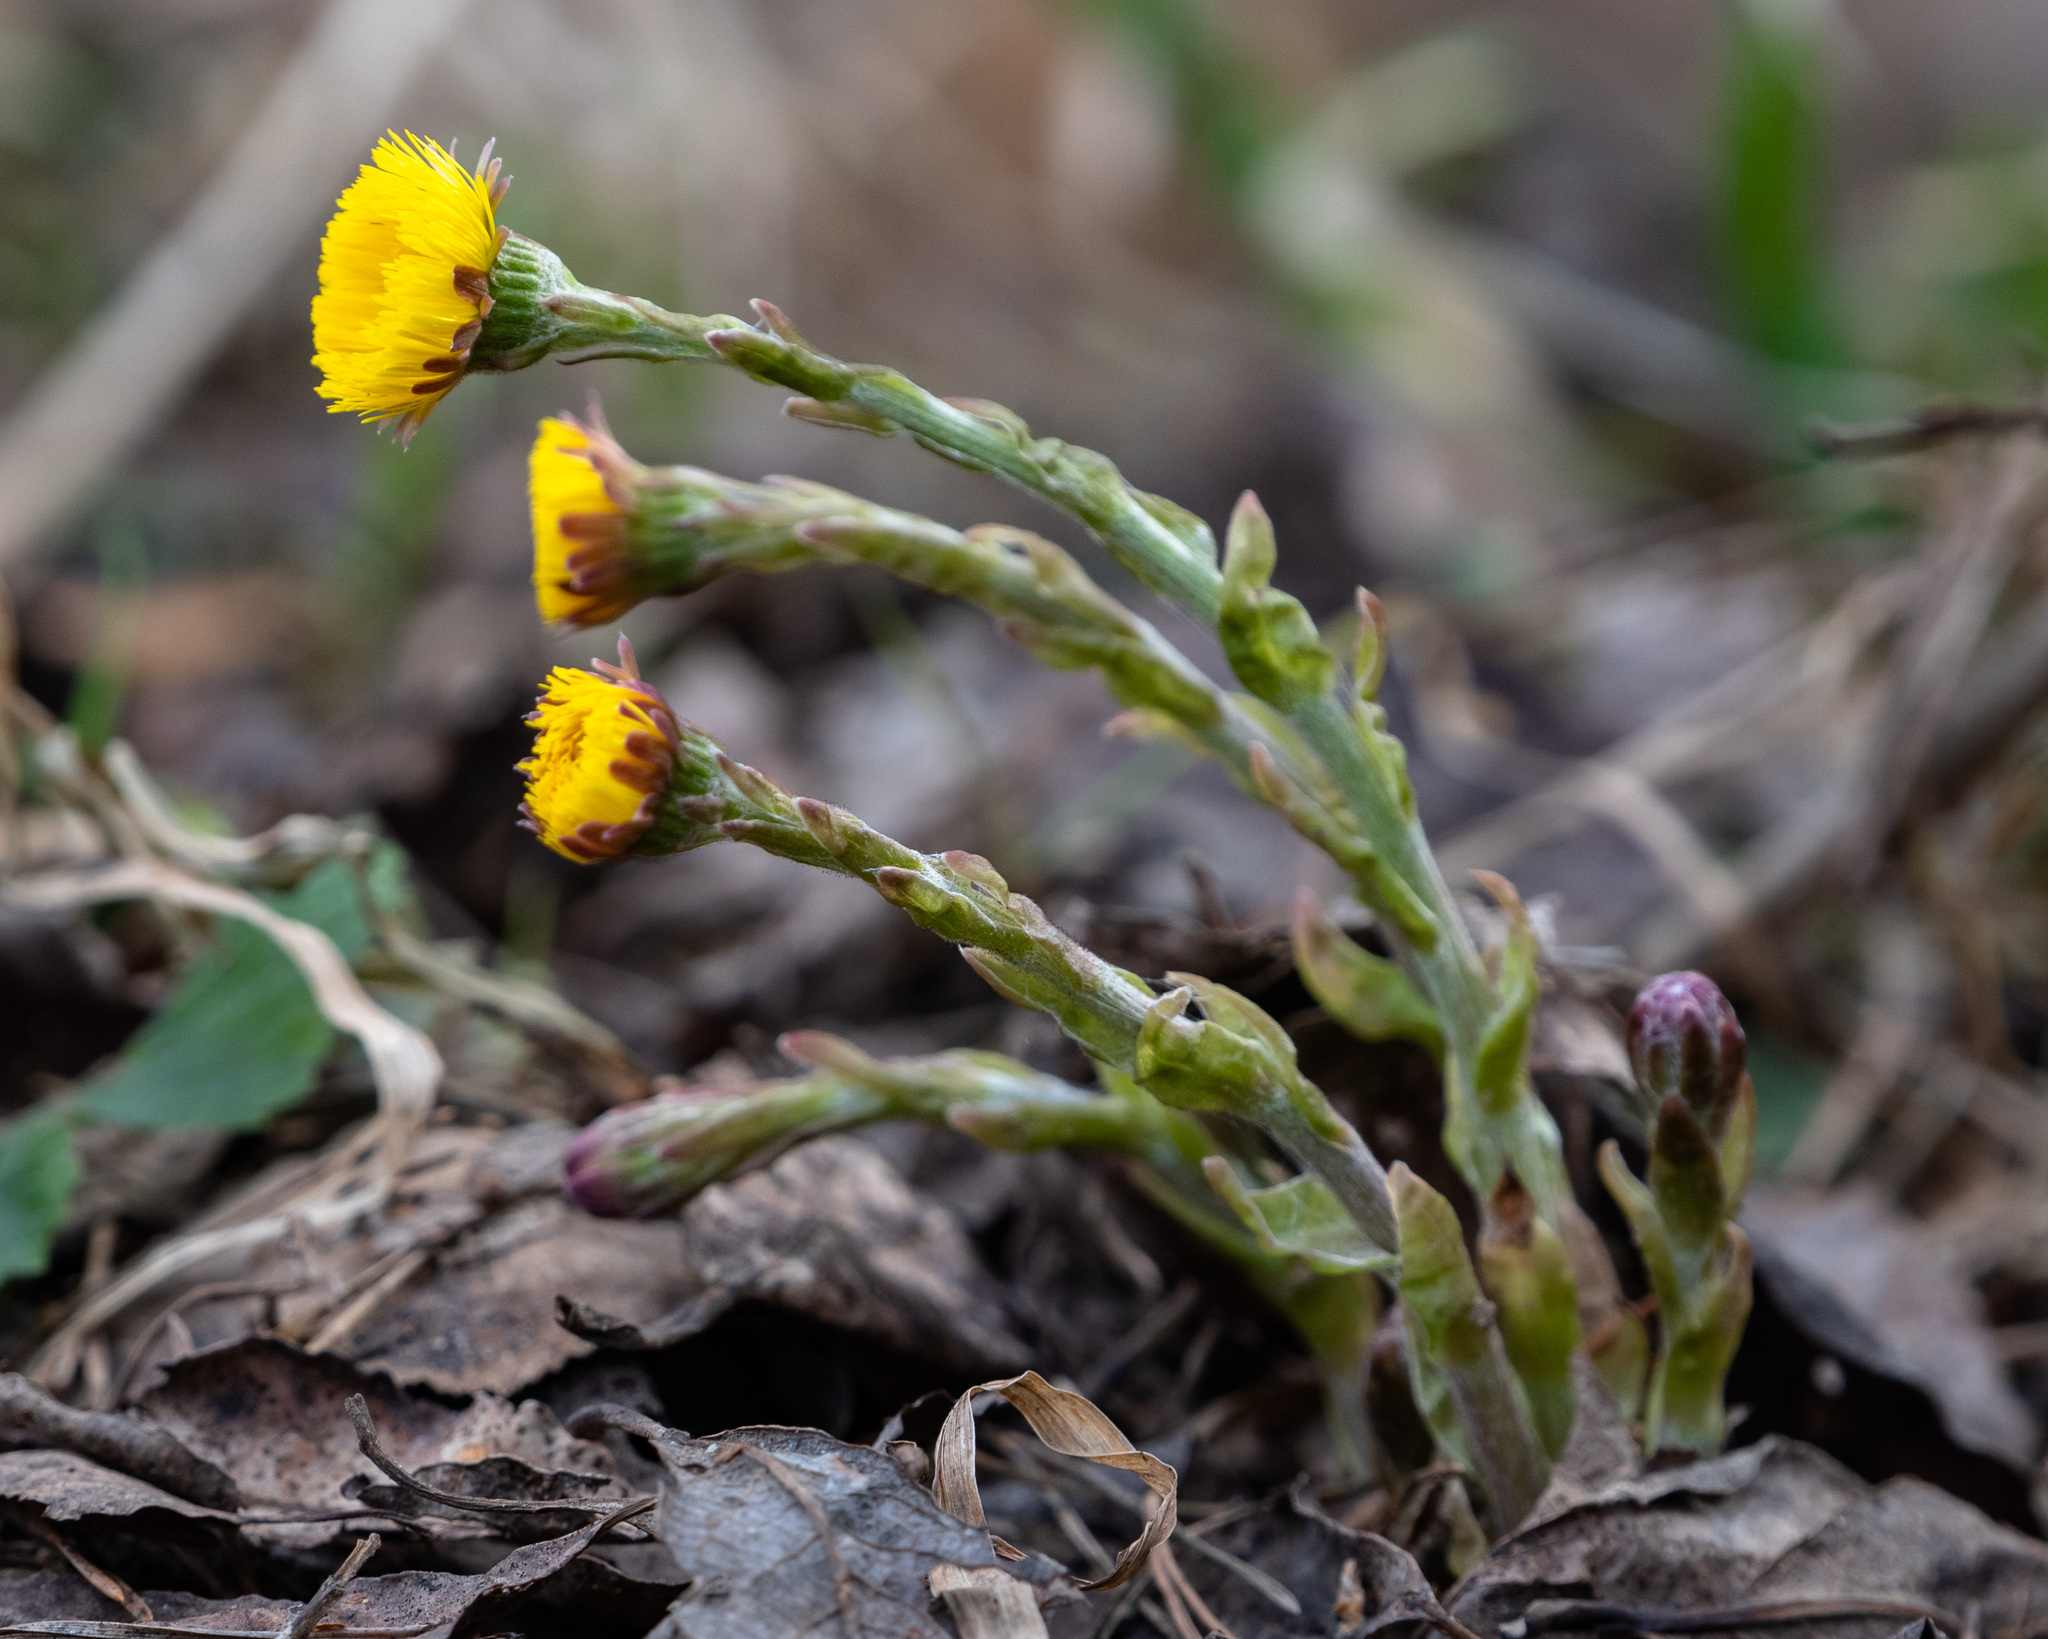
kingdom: Plantae
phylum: Tracheophyta
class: Magnoliopsida
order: Asterales
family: Asteraceae
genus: Tussilago
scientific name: Tussilago farfara
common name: Coltsfoot
